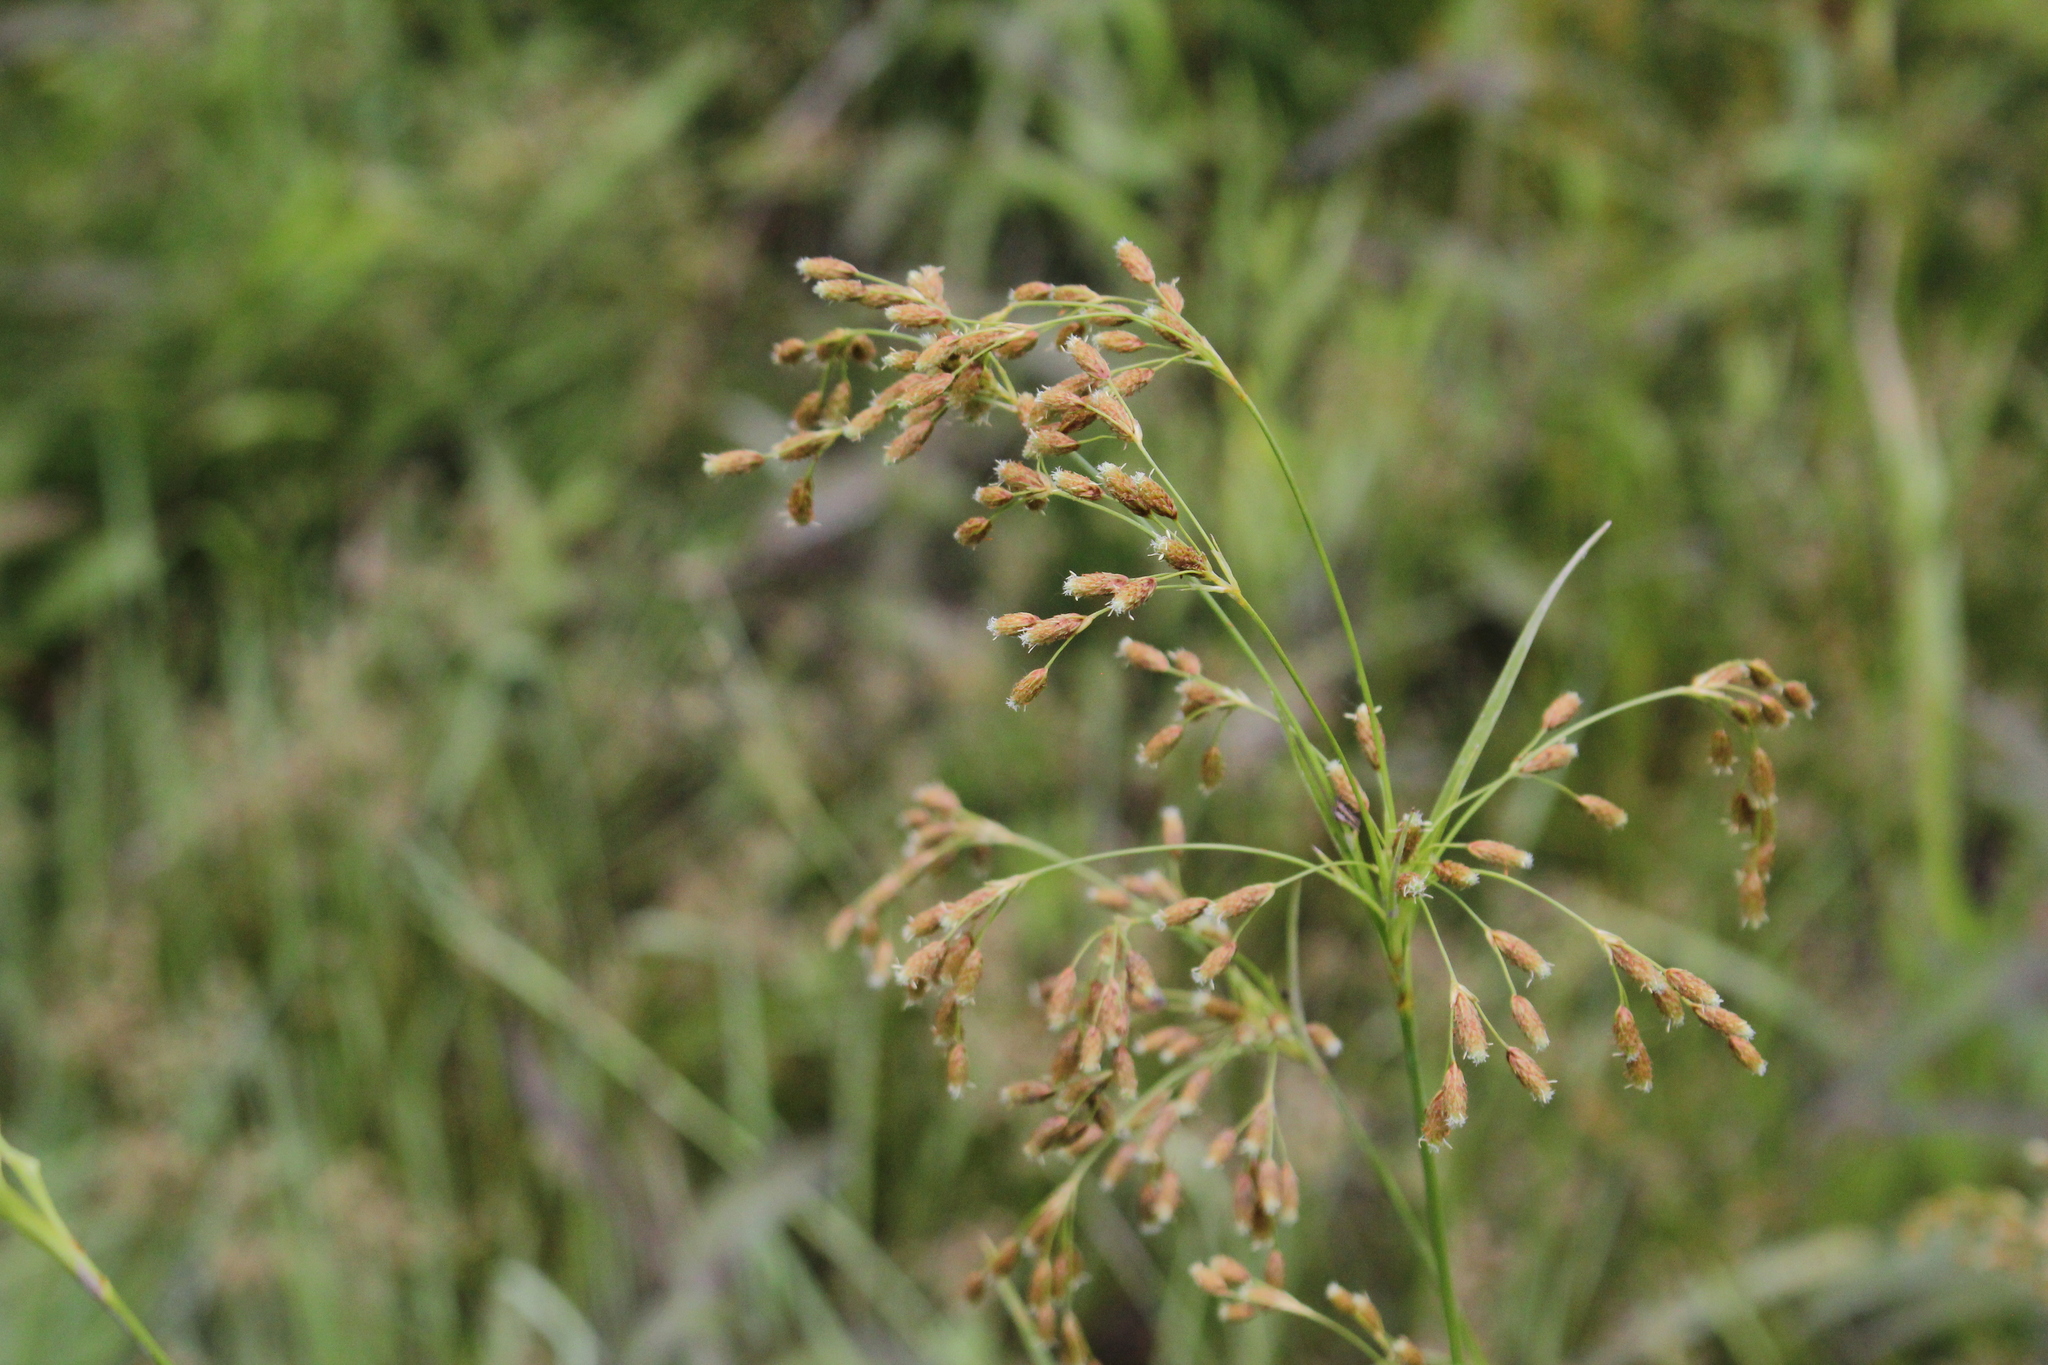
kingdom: Plantae
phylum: Tracheophyta
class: Liliopsida
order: Poales
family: Cyperaceae
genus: Scirpus
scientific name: Scirpus pendulus
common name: Nodding bulrush
